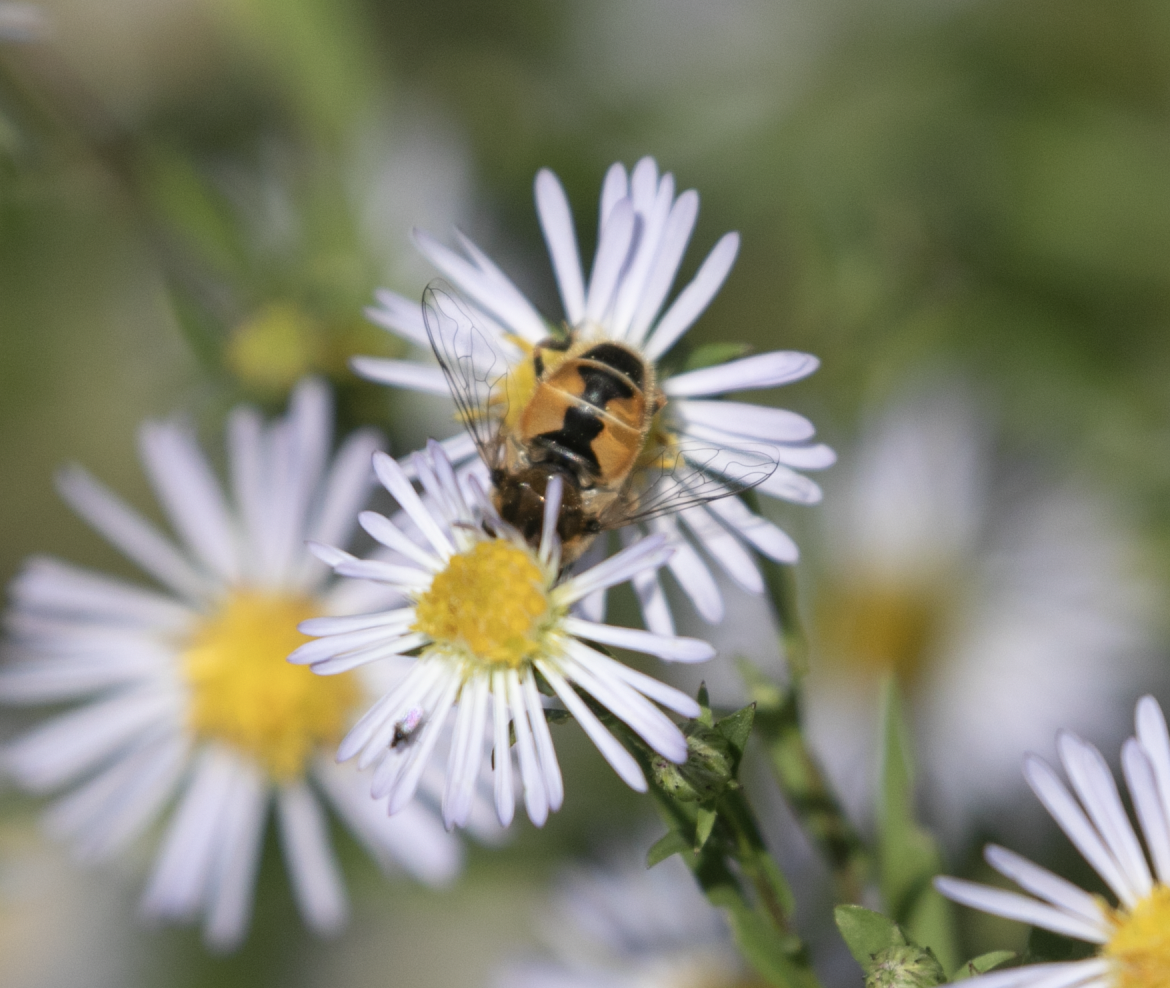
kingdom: Animalia
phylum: Arthropoda
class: Insecta
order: Diptera
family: Syrphidae
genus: Eristalis
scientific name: Eristalis arbustorum
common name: Hover fly
